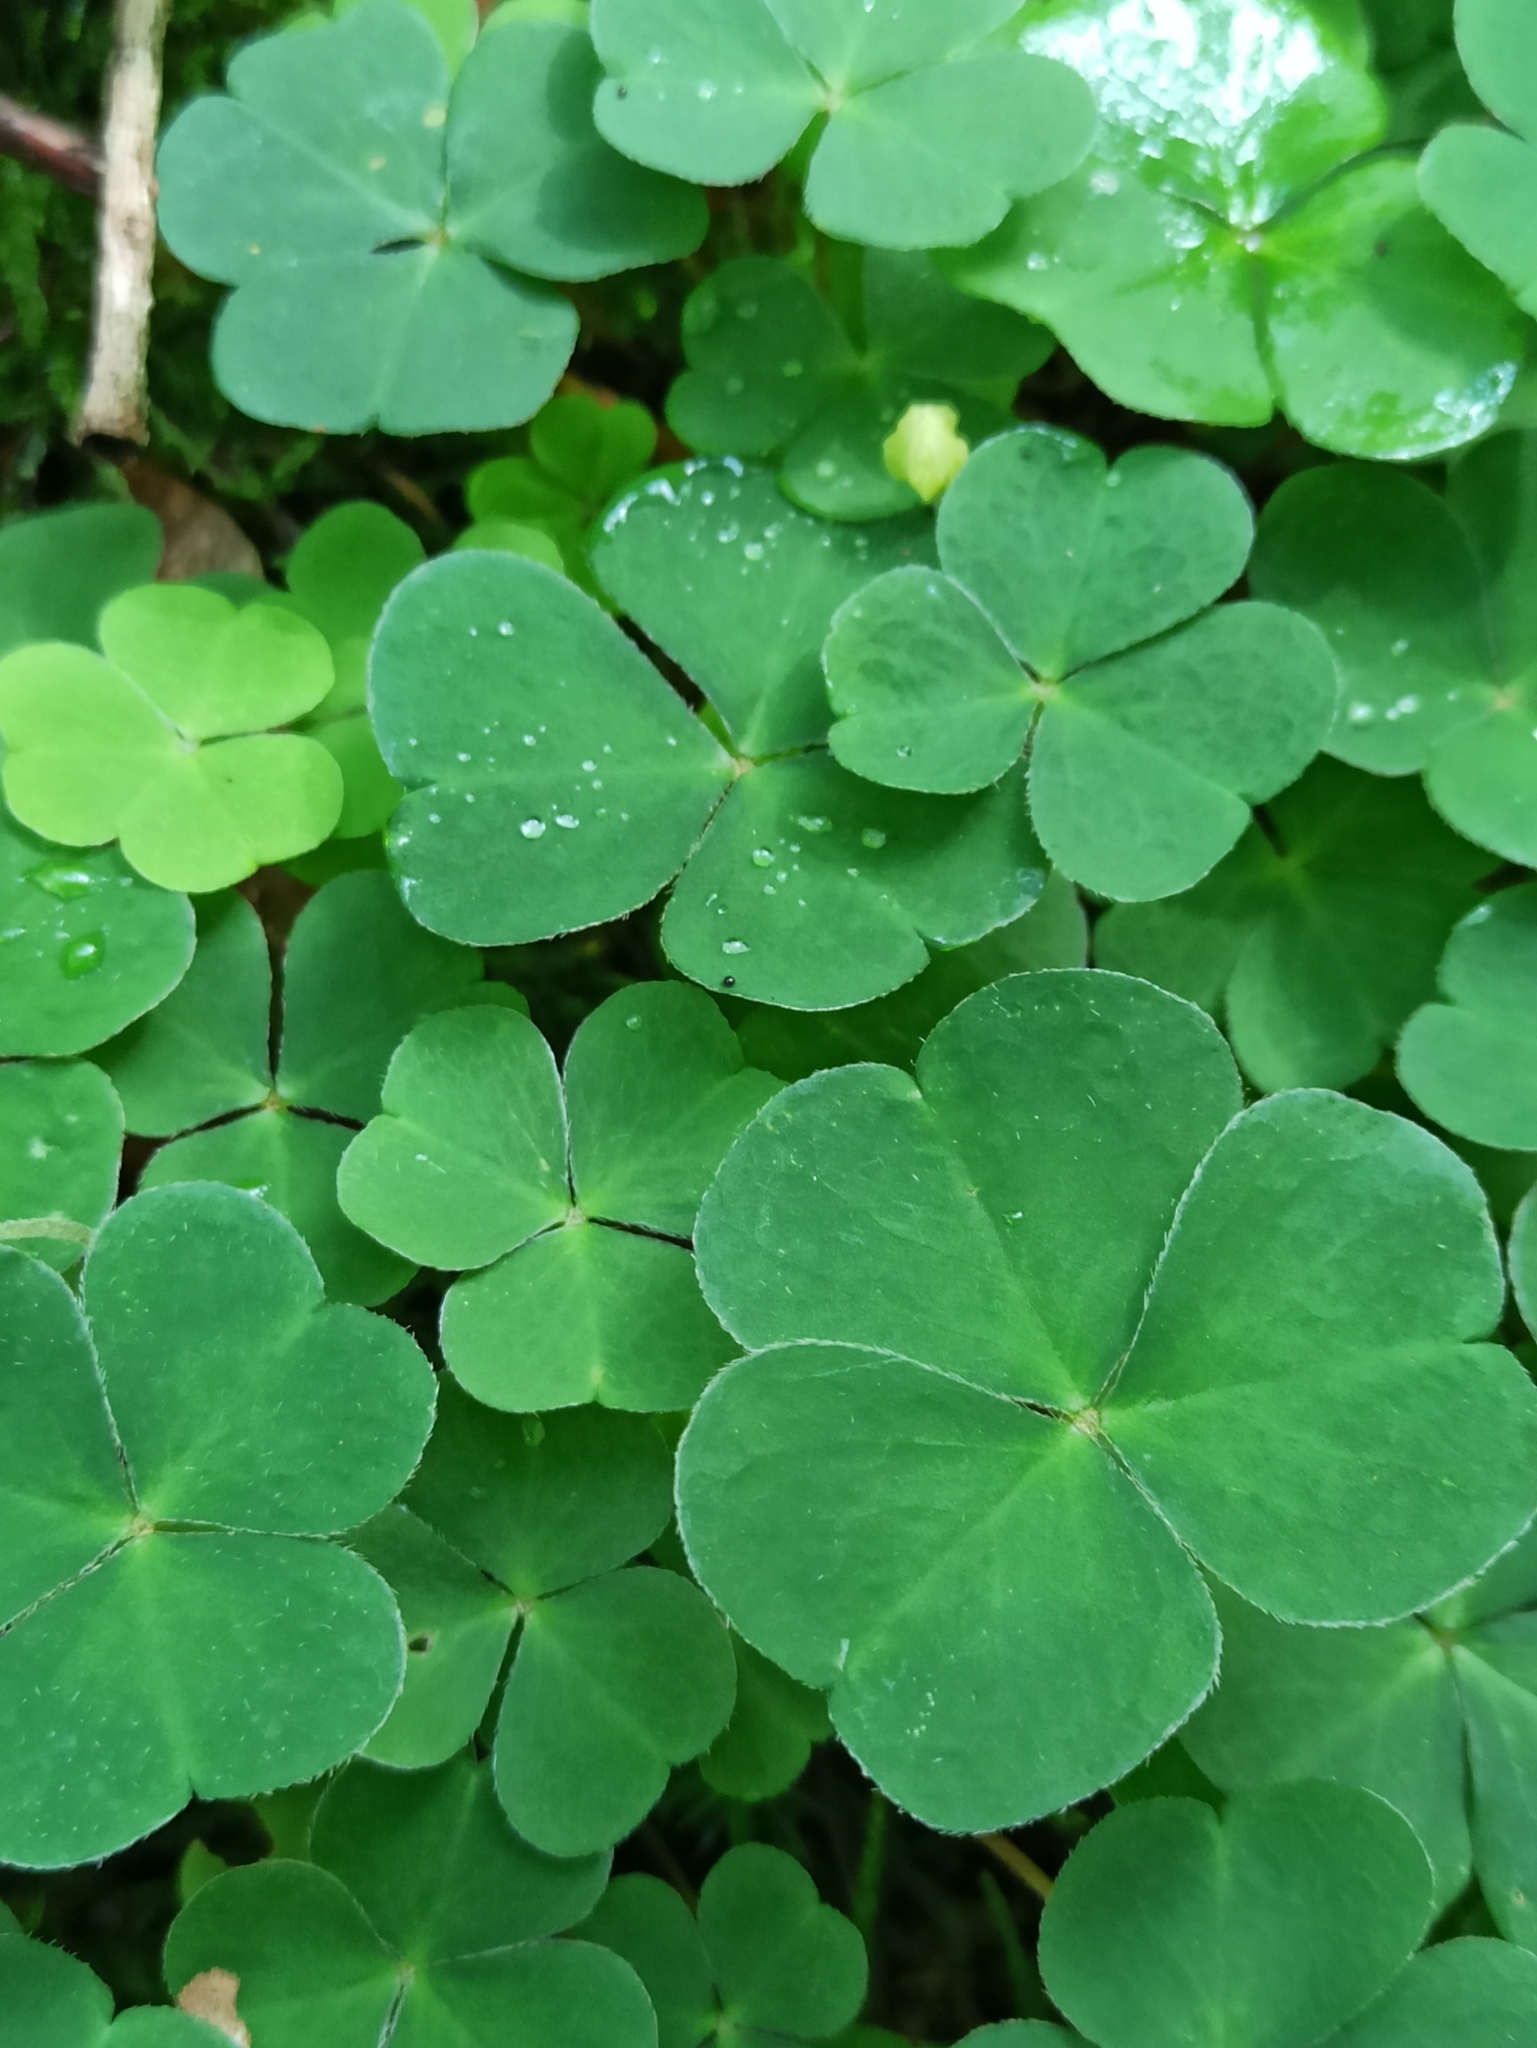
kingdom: Plantae
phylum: Tracheophyta
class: Magnoliopsida
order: Oxalidales
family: Oxalidaceae
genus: Oxalis
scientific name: Oxalis acetosella
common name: Wood-sorrel
